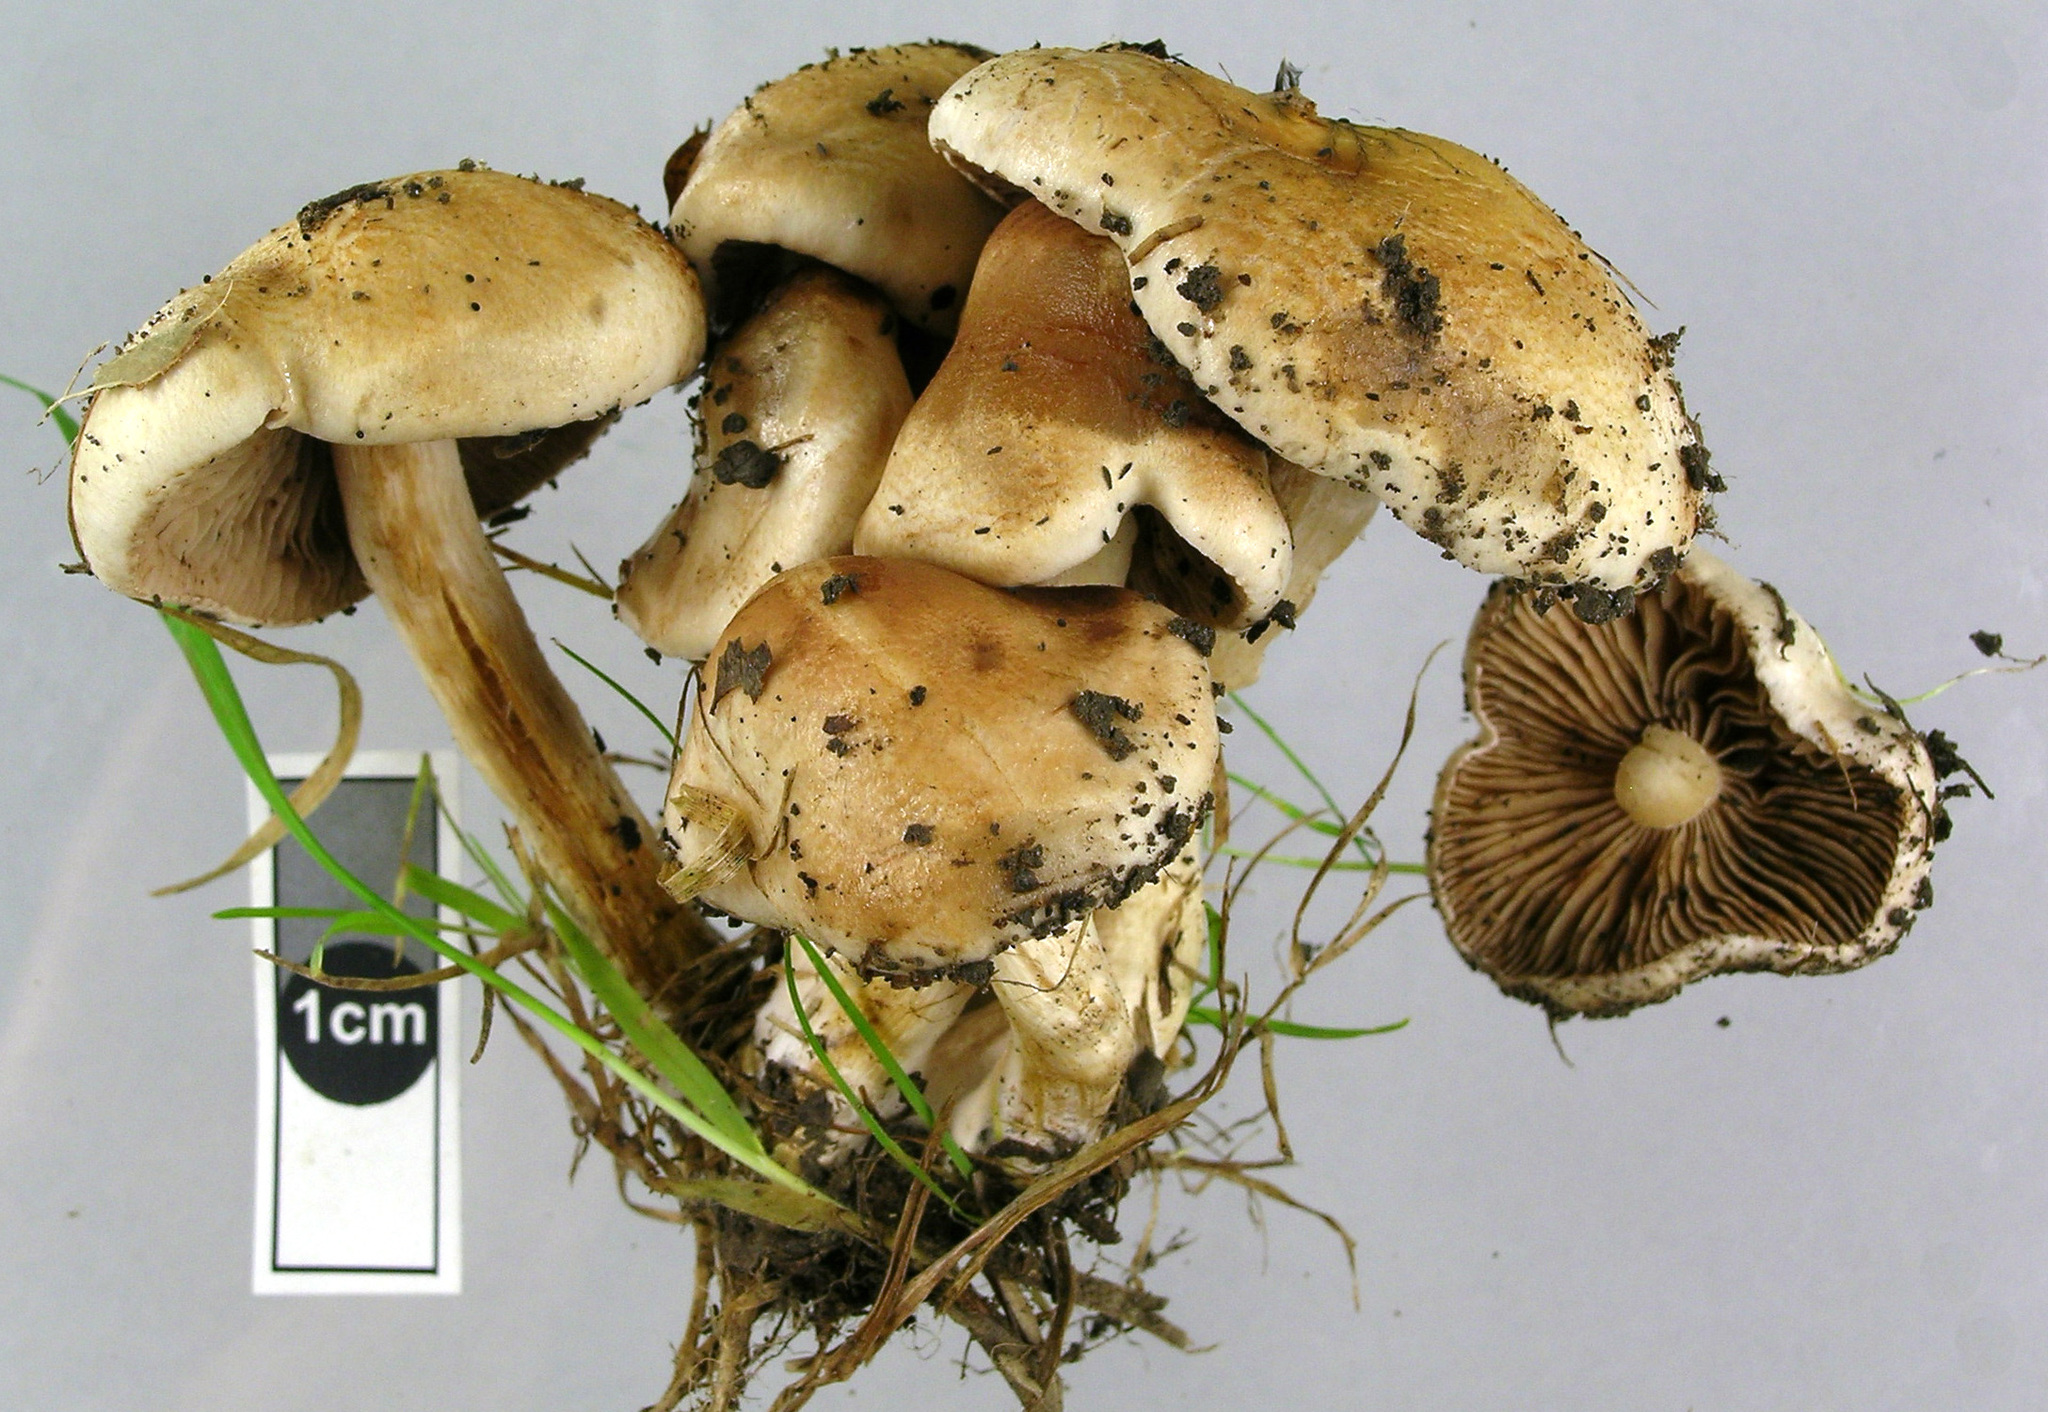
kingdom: Fungi
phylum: Basidiomycota
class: Agaricomycetes
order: Agaricales
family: Hymenogastraceae
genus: Hebeloma
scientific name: Hebeloma ischnostylum
